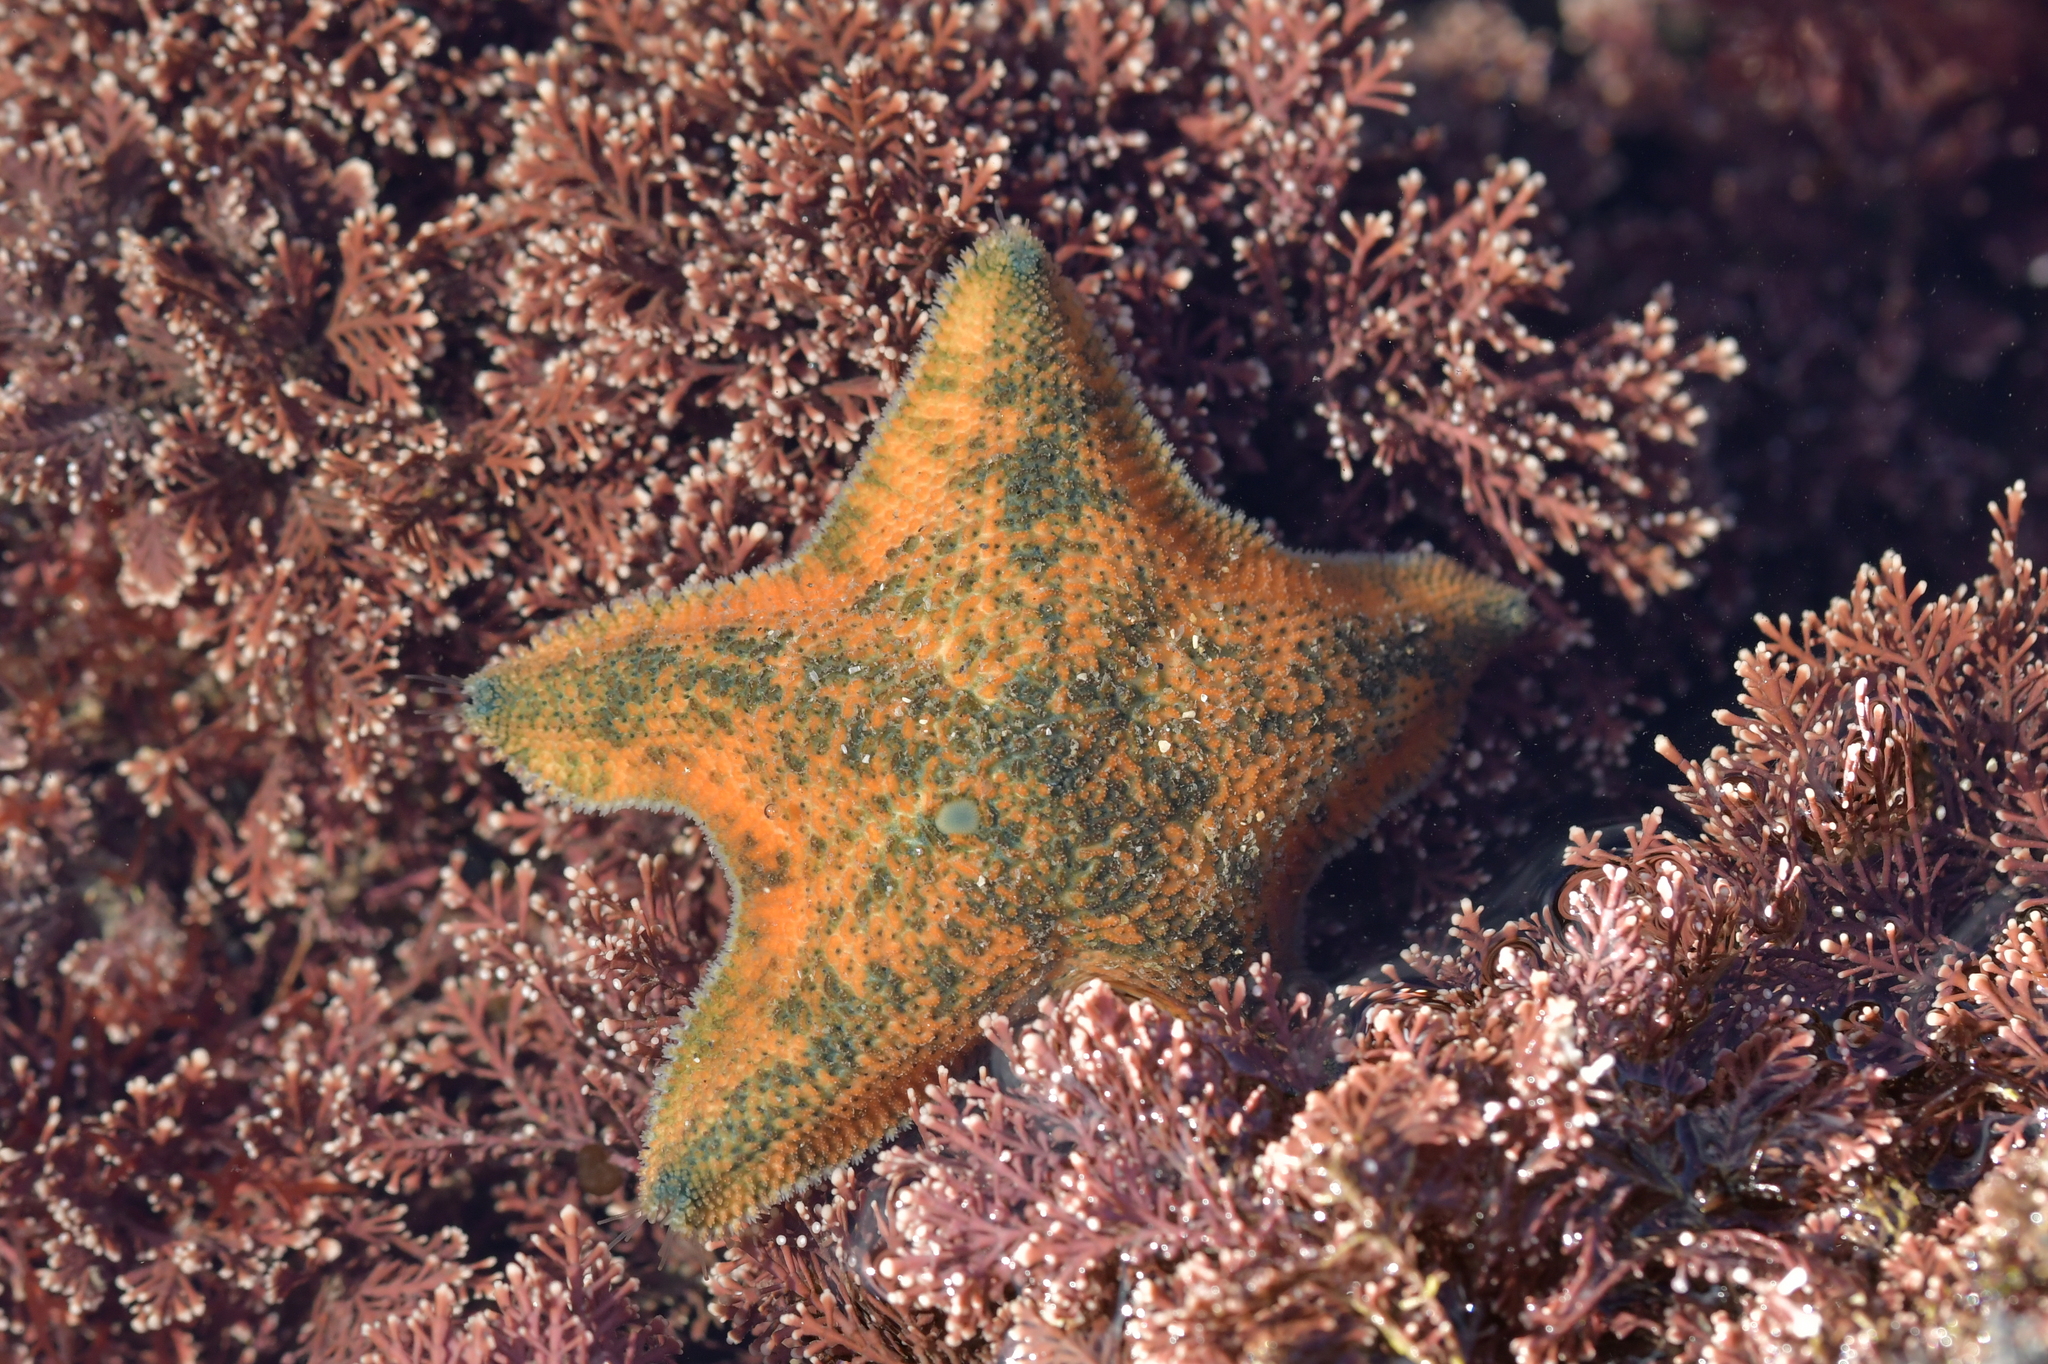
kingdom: Animalia
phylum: Echinodermata
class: Asteroidea
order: Valvatida
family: Asterinidae
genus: Patiriella
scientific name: Patiriella regularis
